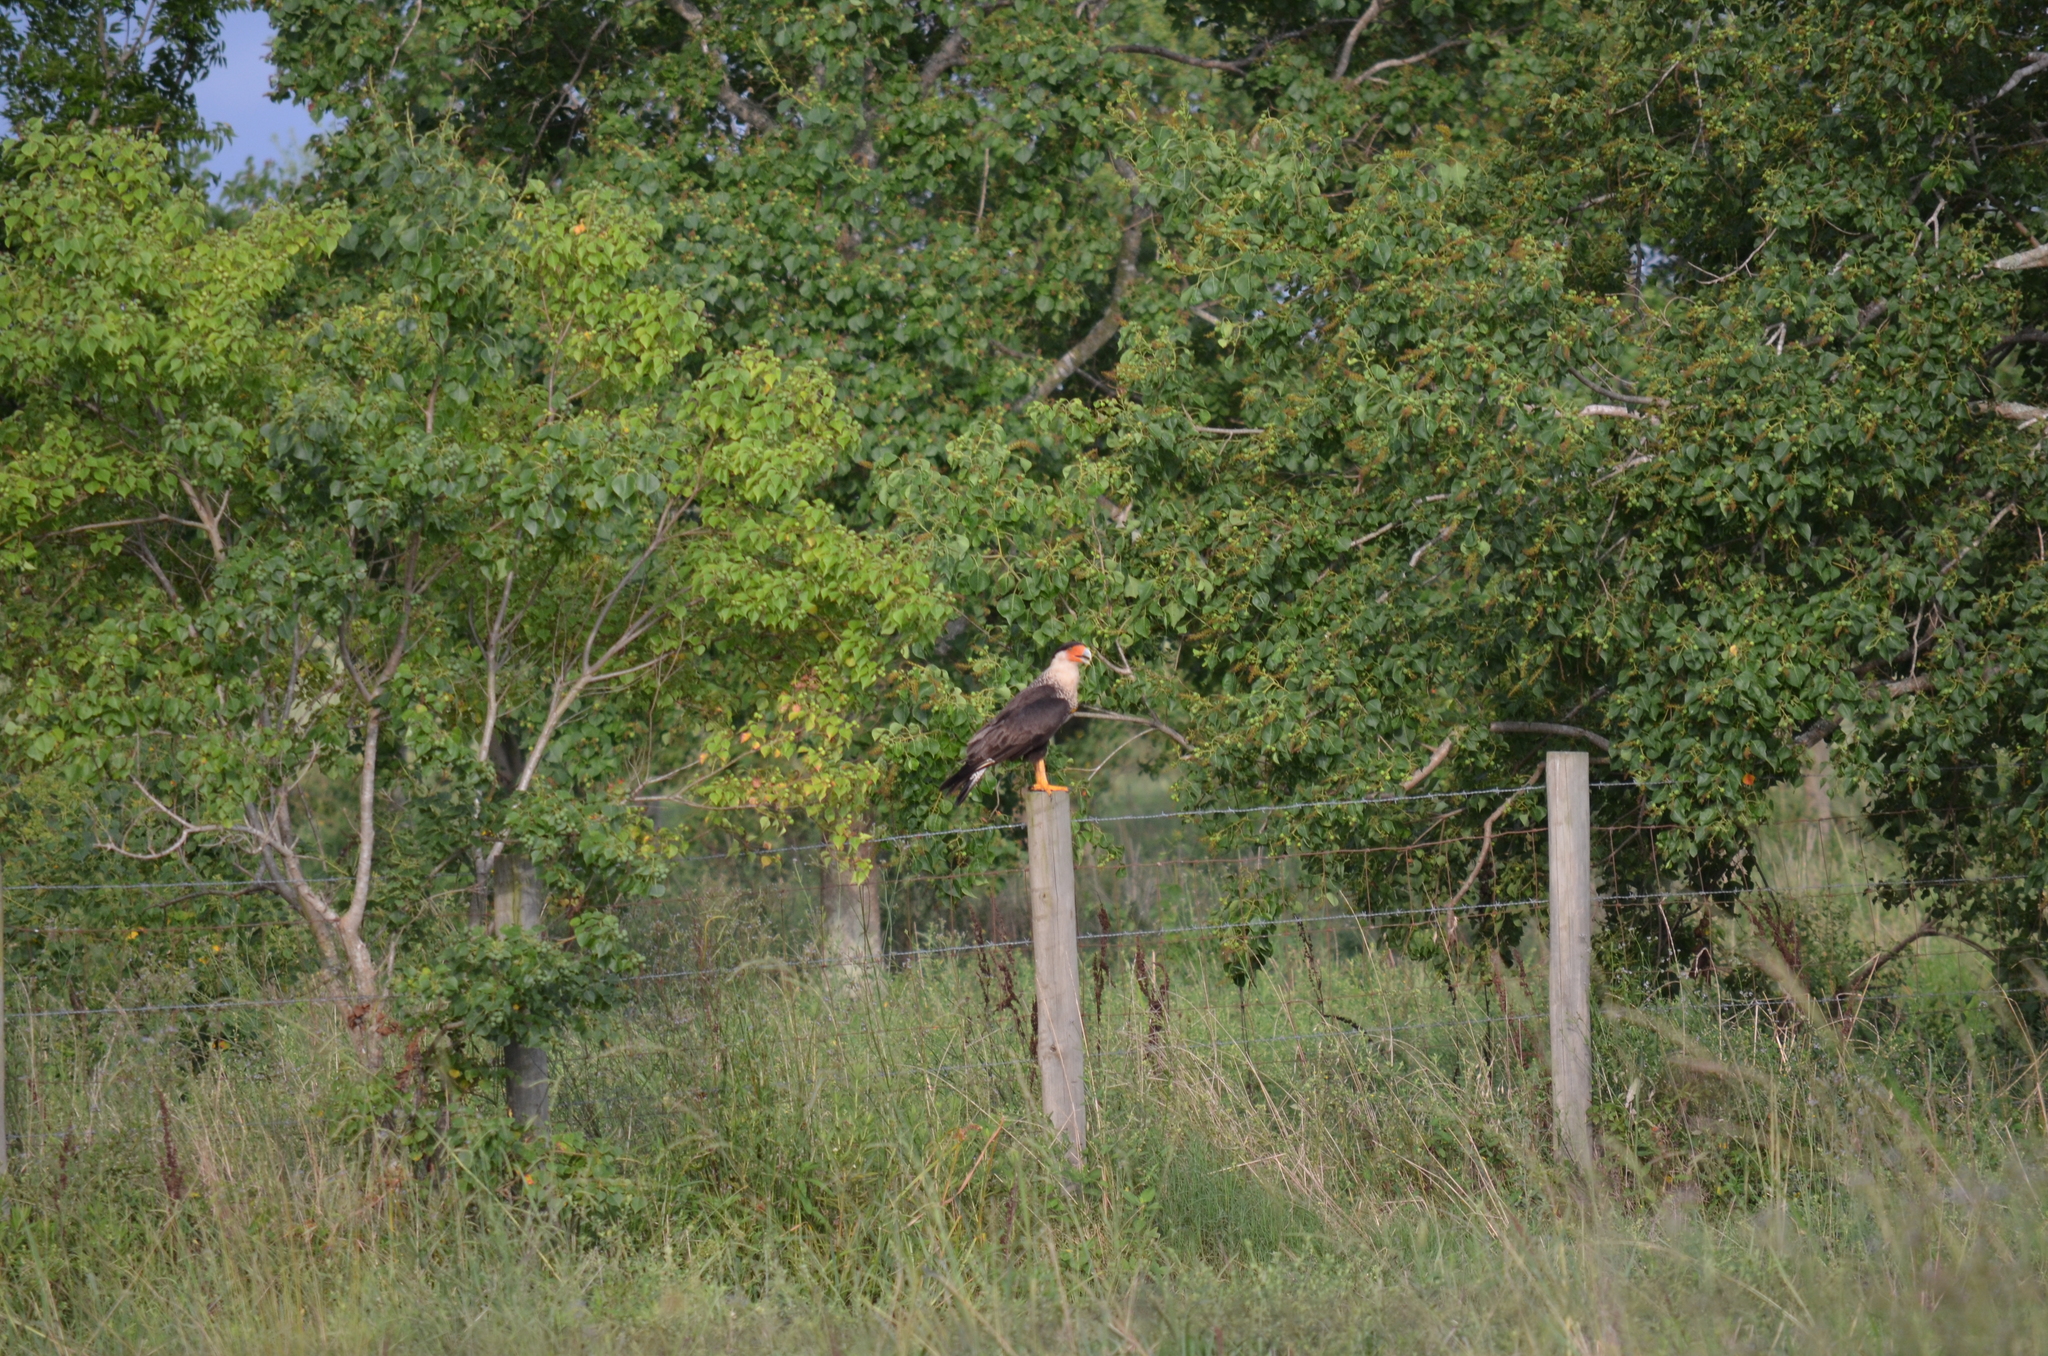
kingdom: Animalia
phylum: Chordata
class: Aves
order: Falconiformes
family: Falconidae
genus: Caracara
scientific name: Caracara plancus
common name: Southern caracara
